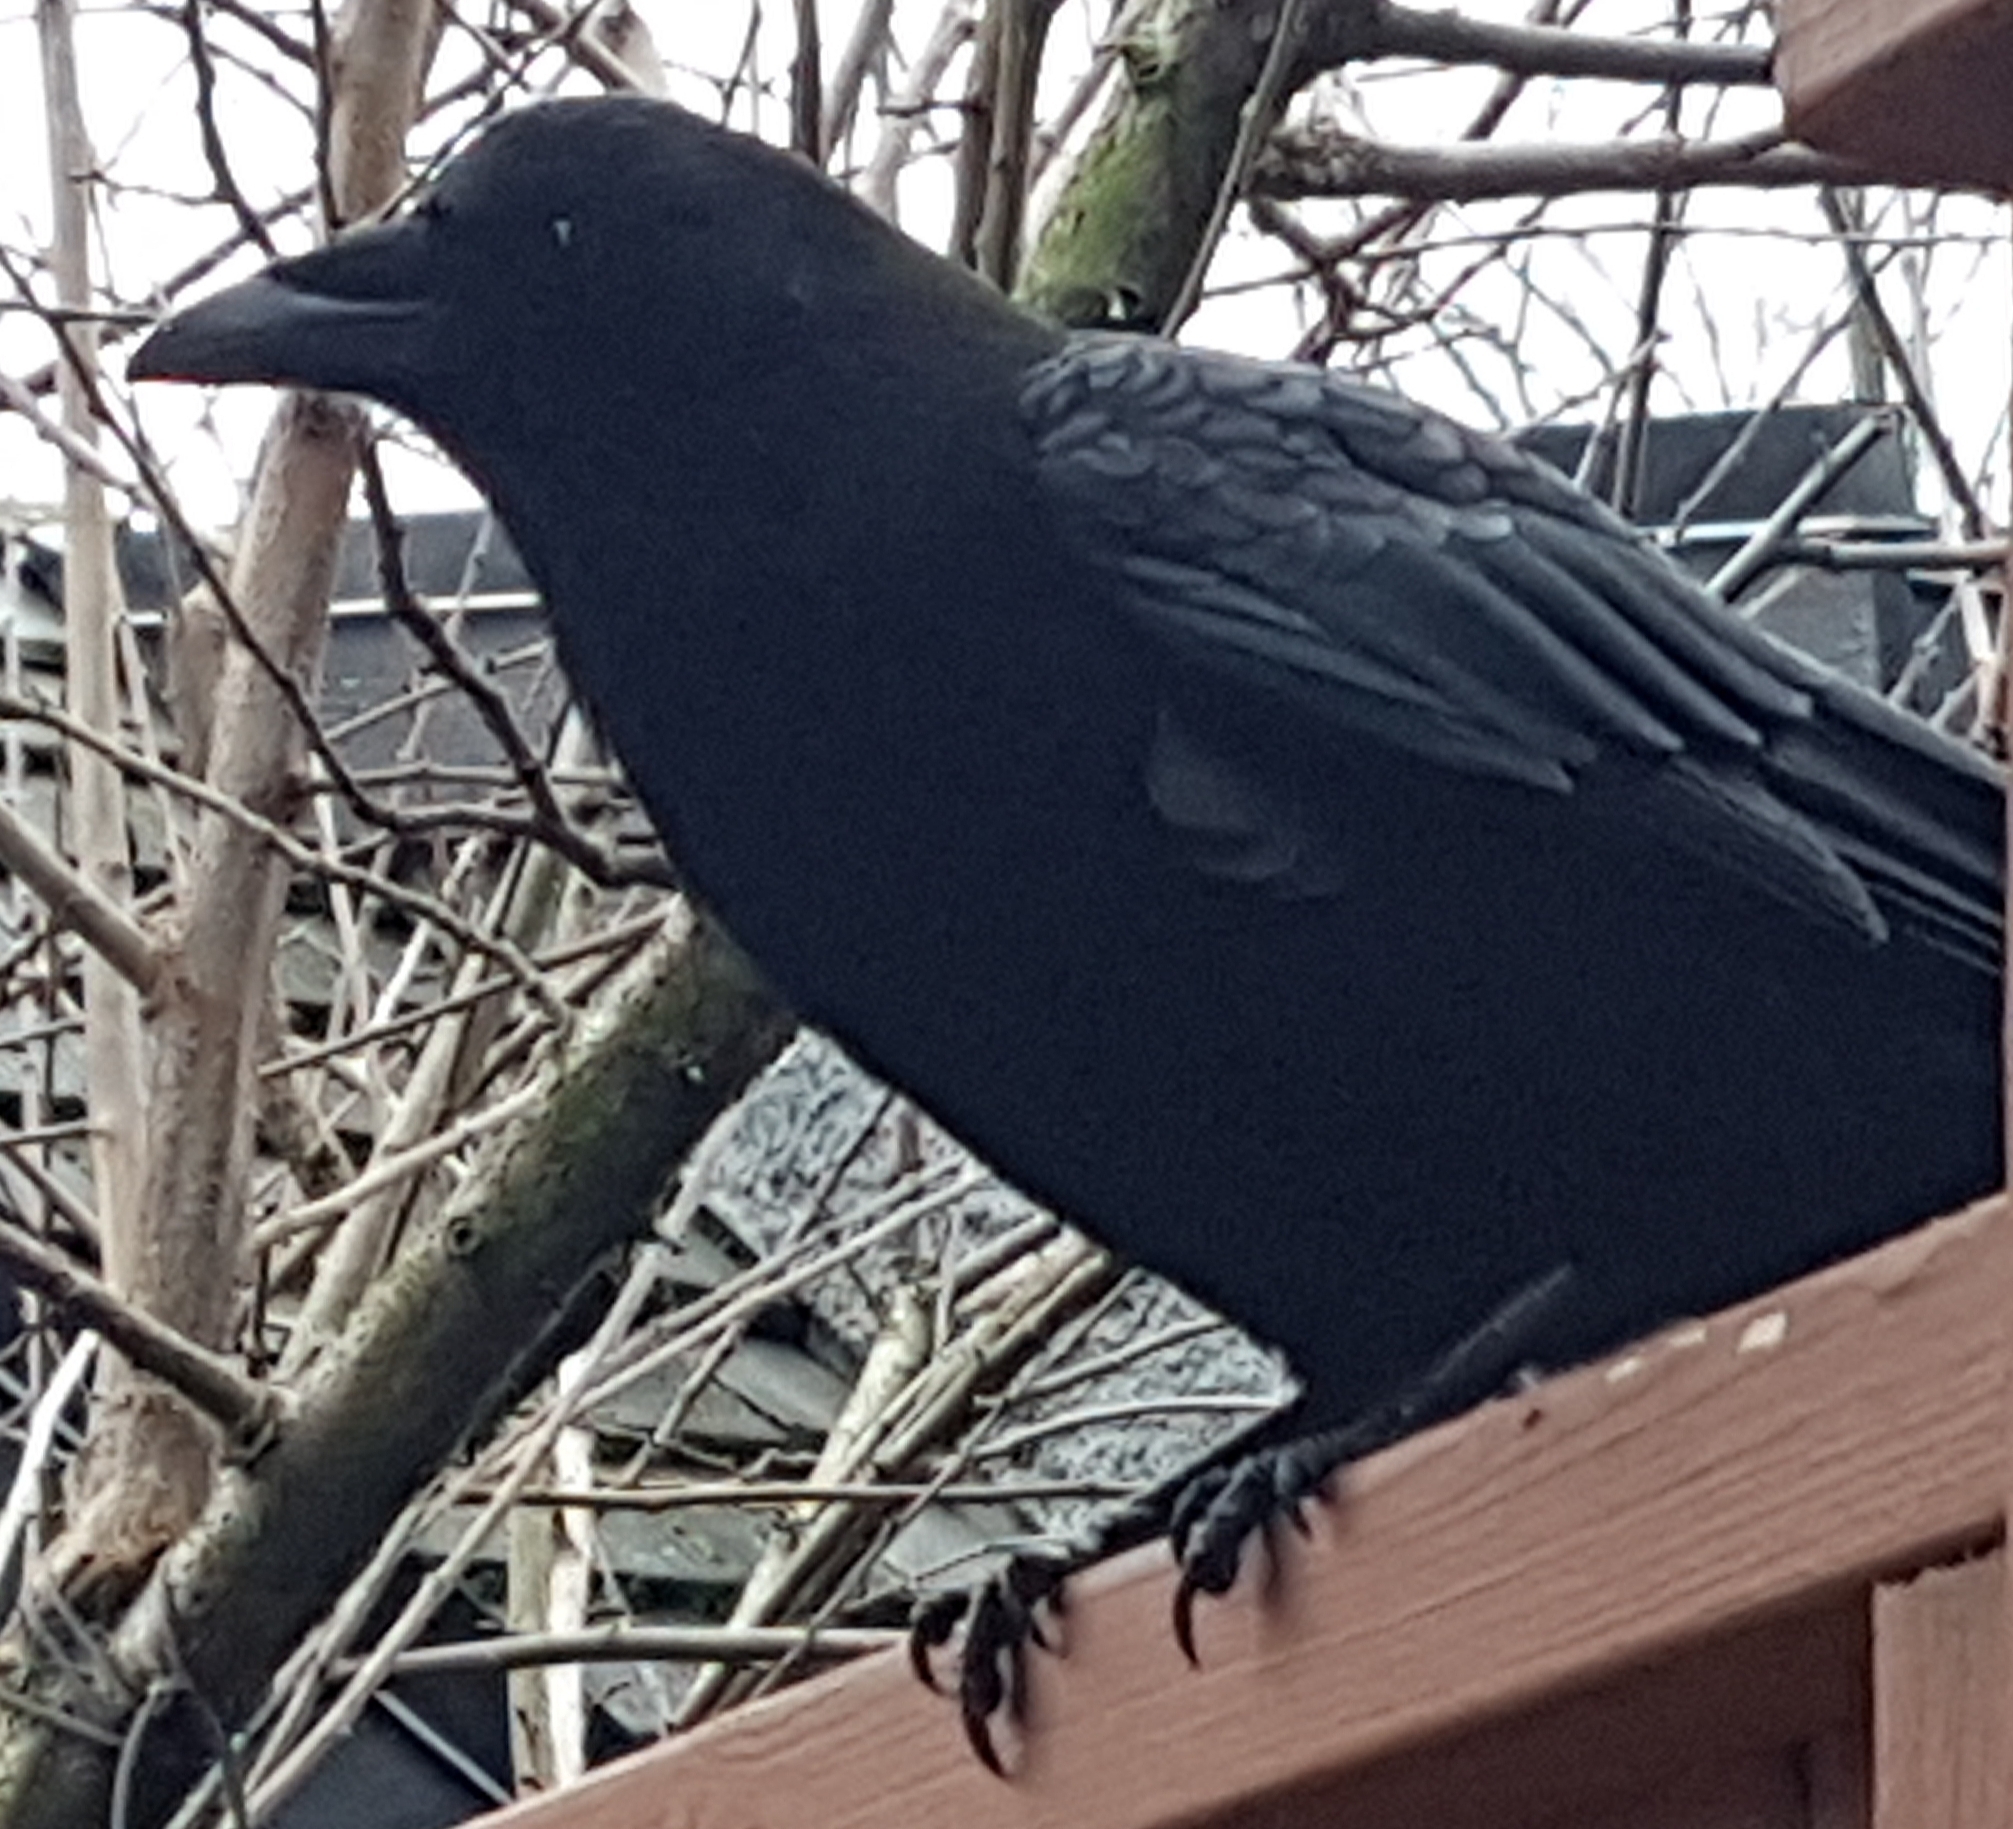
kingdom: Animalia
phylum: Chordata
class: Aves
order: Passeriformes
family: Corvidae
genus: Corvus
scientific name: Corvus brachyrhynchos
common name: American crow
